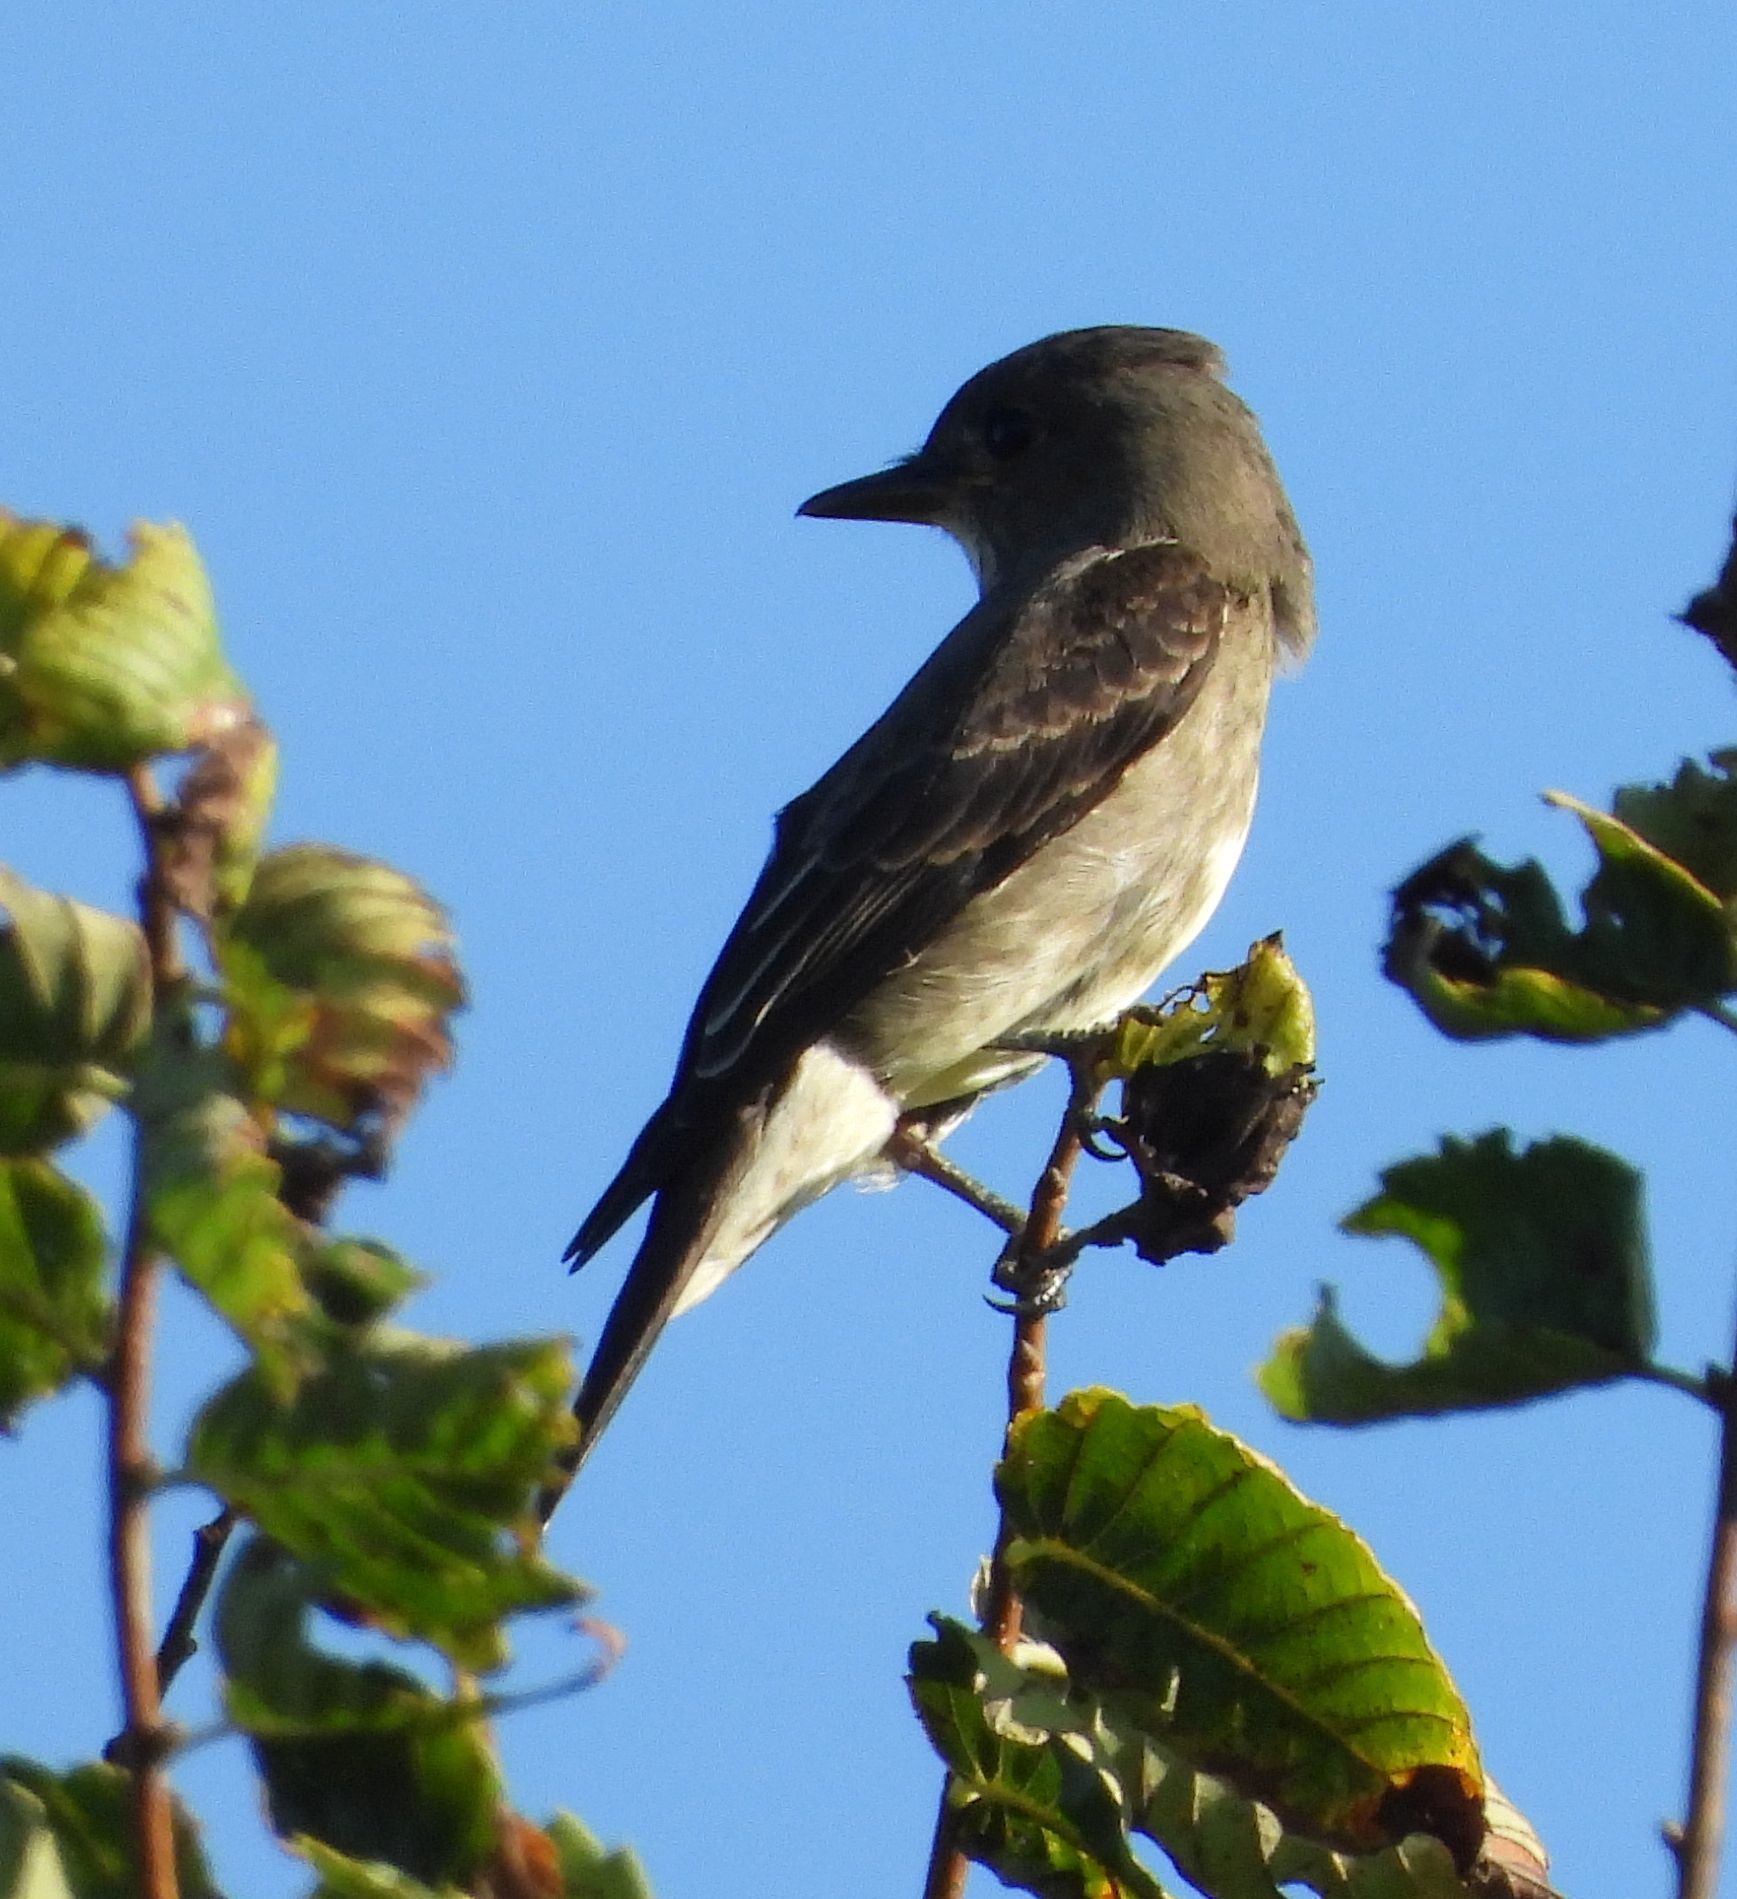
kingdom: Animalia
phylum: Chordata
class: Aves
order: Passeriformes
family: Tyrannidae
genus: Contopus
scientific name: Contopus cooperi
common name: Olive-sided flycatcher
